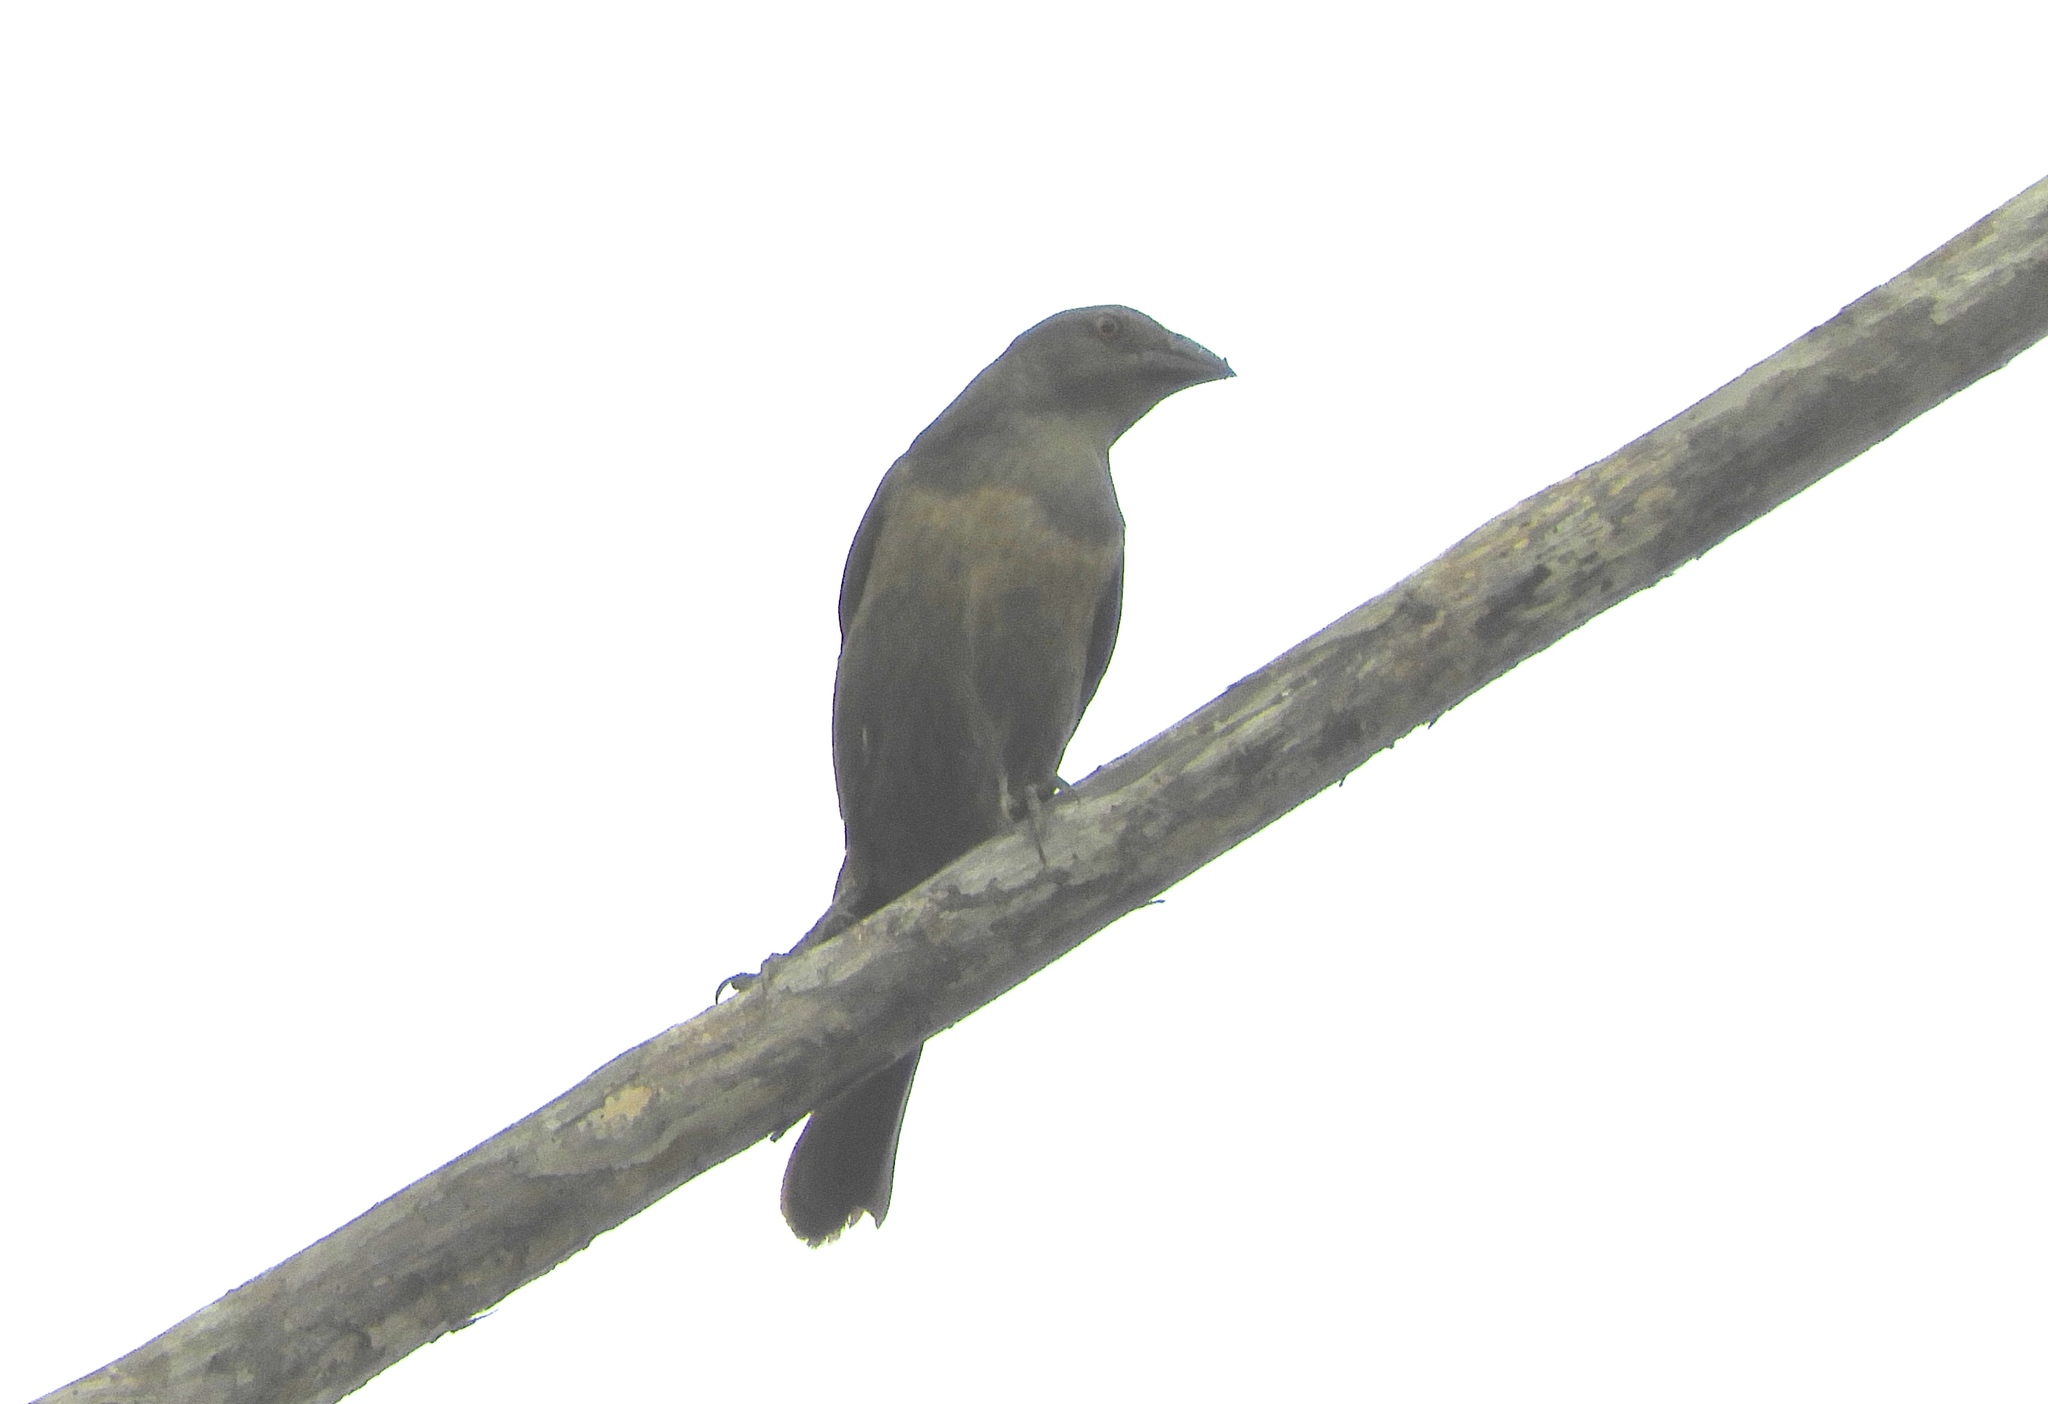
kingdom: Animalia
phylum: Chordata
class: Aves
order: Passeriformes
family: Icteridae
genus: Molothrus
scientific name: Molothrus aeneus
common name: Bronzed cowbird
